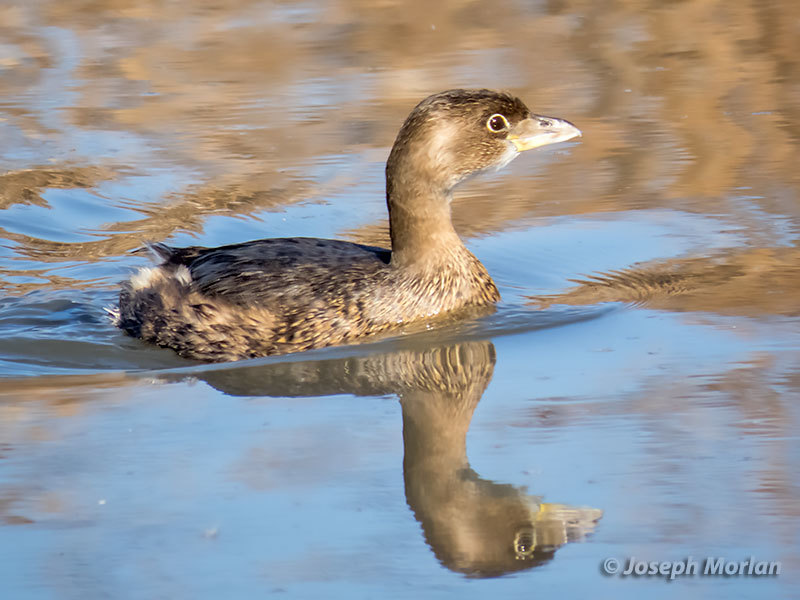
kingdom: Animalia
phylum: Chordata
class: Aves
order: Podicipediformes
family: Podicipedidae
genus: Podilymbus
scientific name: Podilymbus podiceps
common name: Pied-billed grebe
